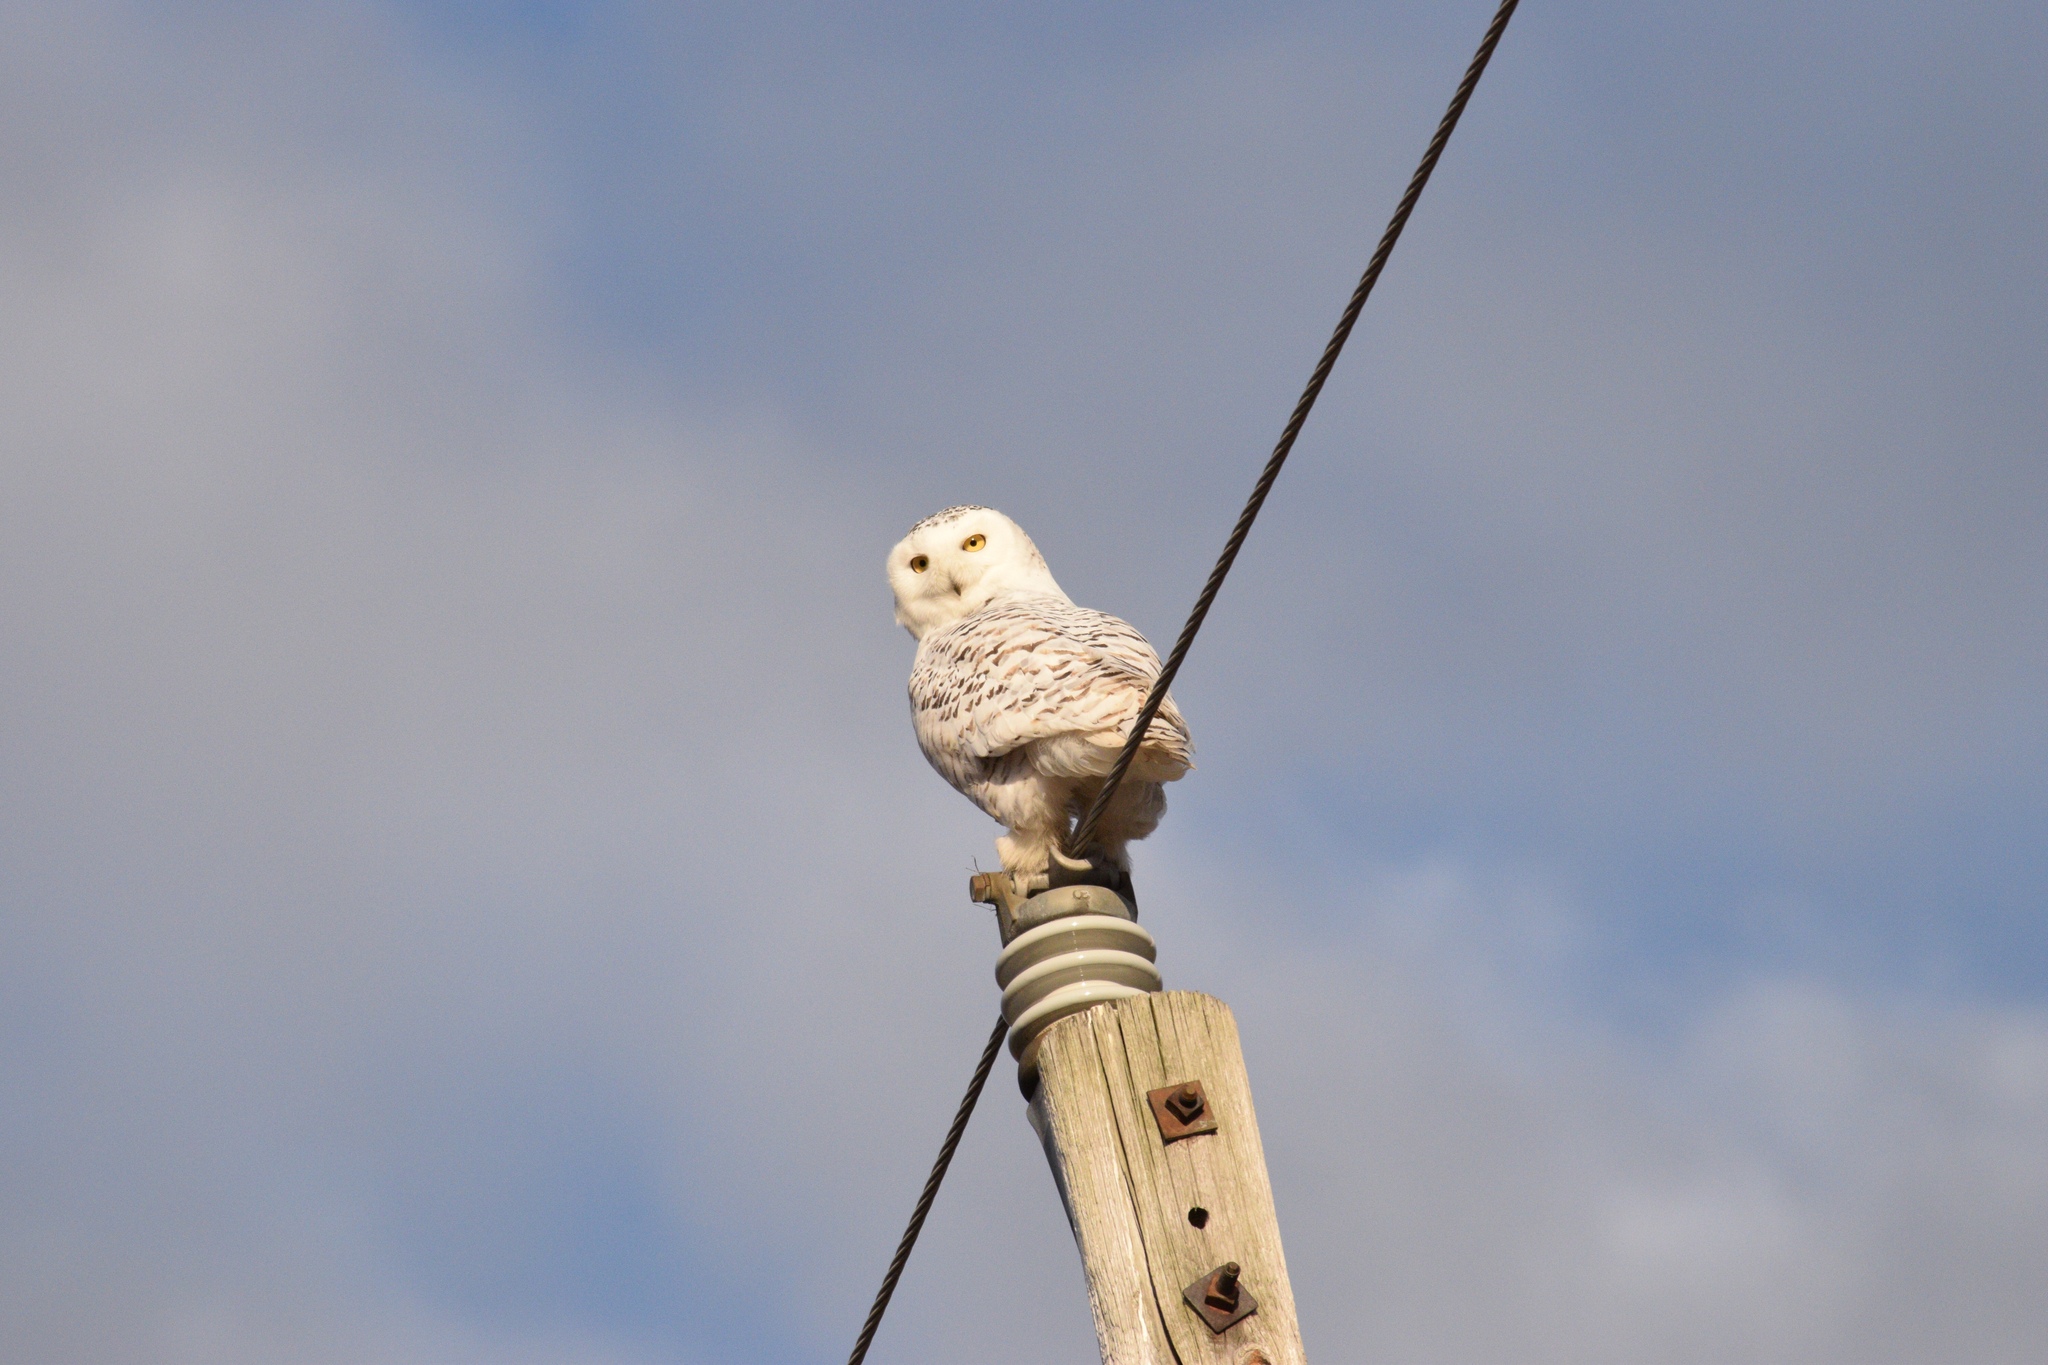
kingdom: Animalia
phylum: Chordata
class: Aves
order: Strigiformes
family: Strigidae
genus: Bubo
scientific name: Bubo scandiacus
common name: Snowy owl
